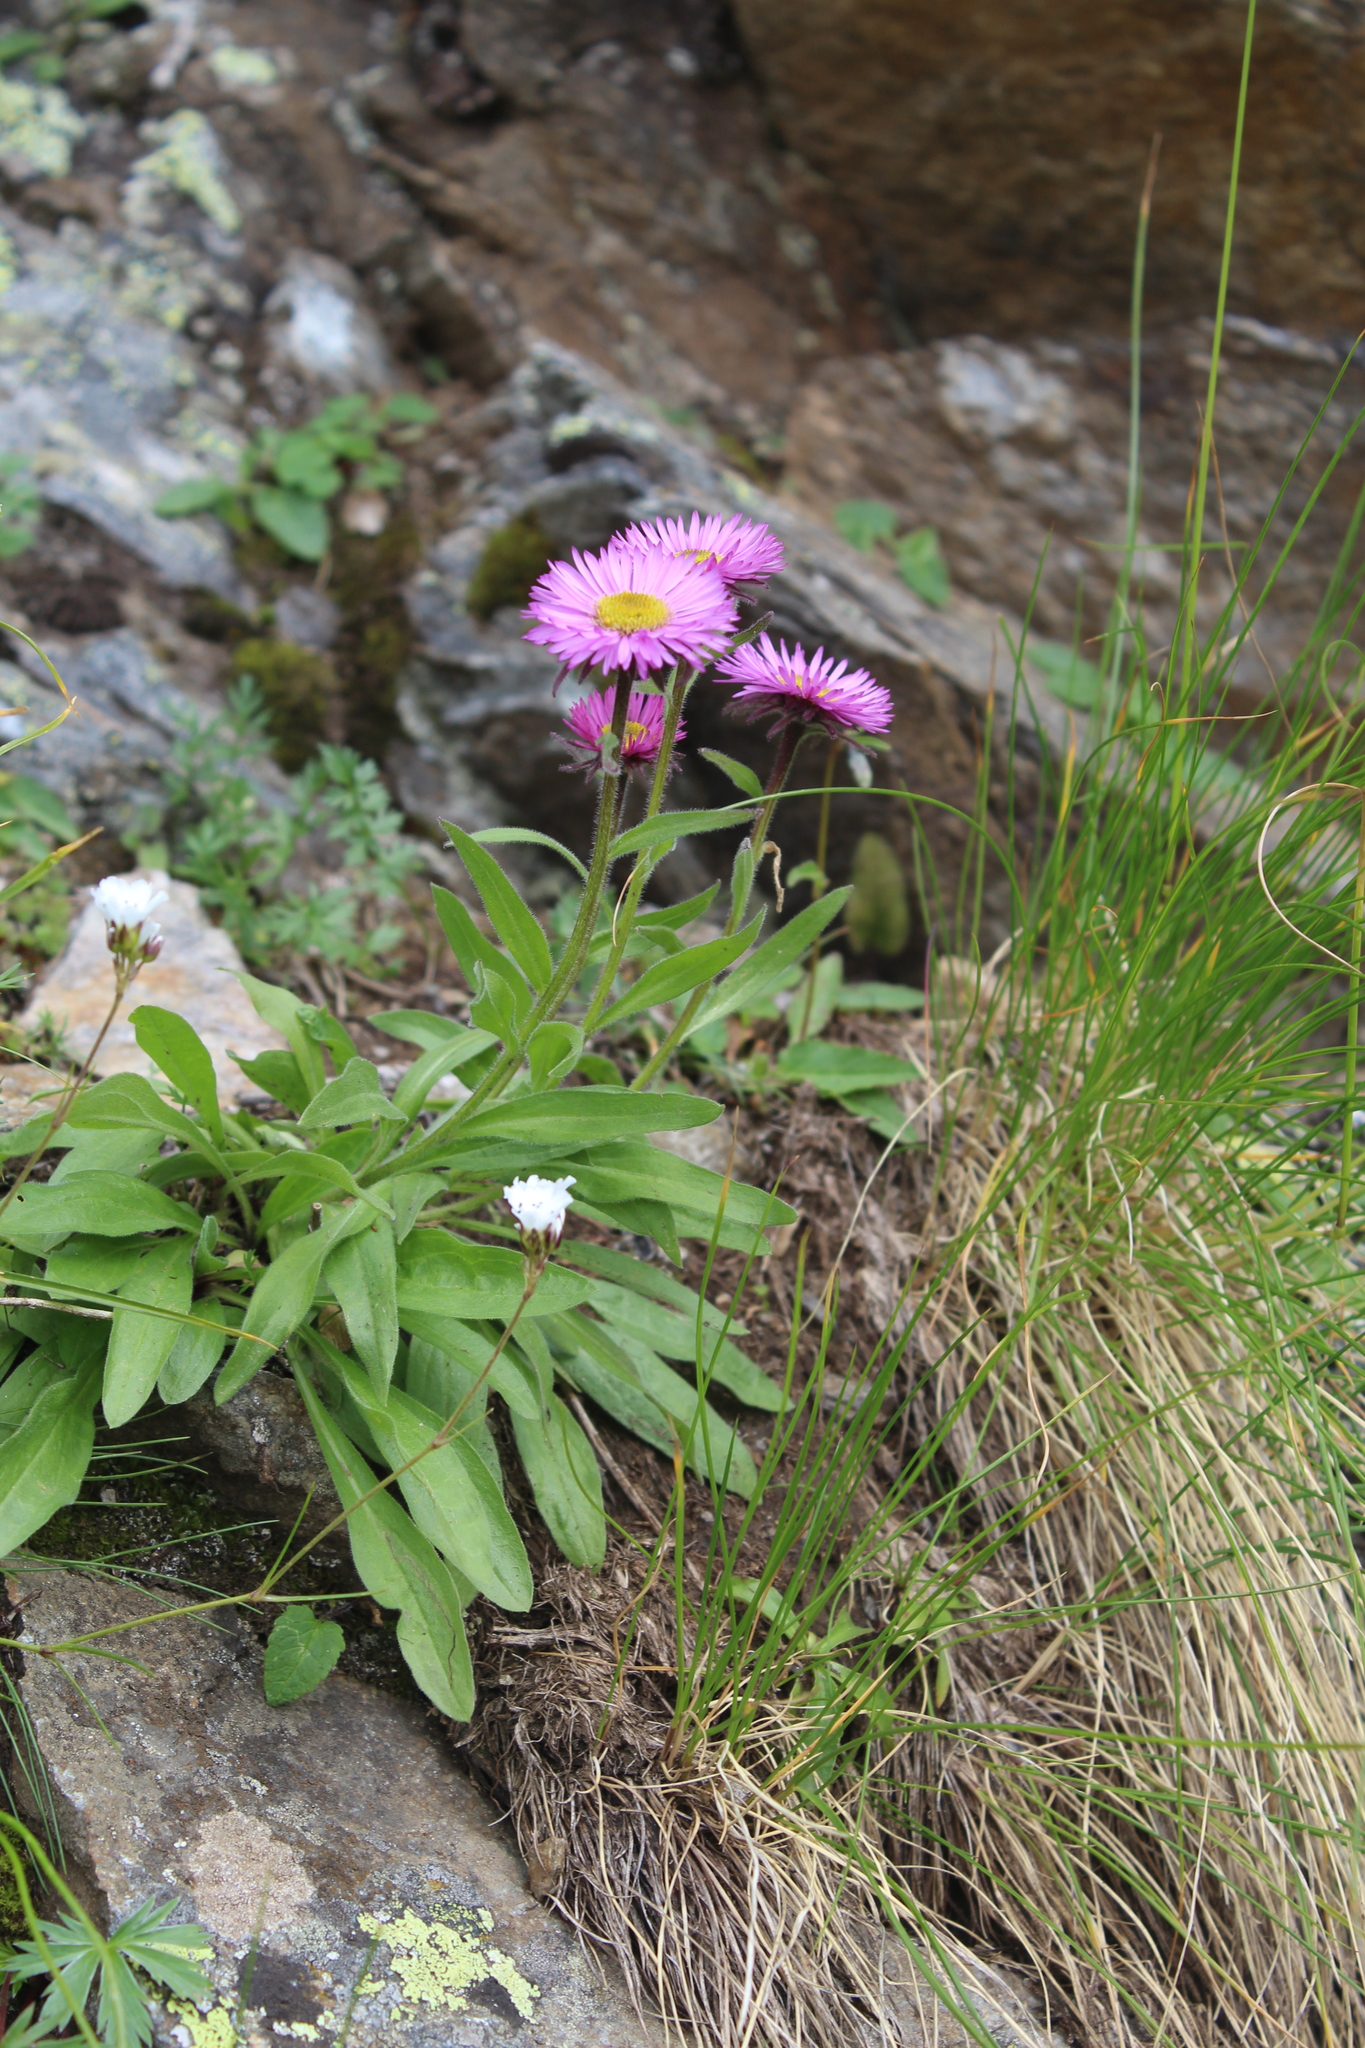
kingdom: Plantae
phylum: Tracheophyta
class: Magnoliopsida
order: Asterales
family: Asteraceae
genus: Erigeron
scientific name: Erigeron caucasicus
